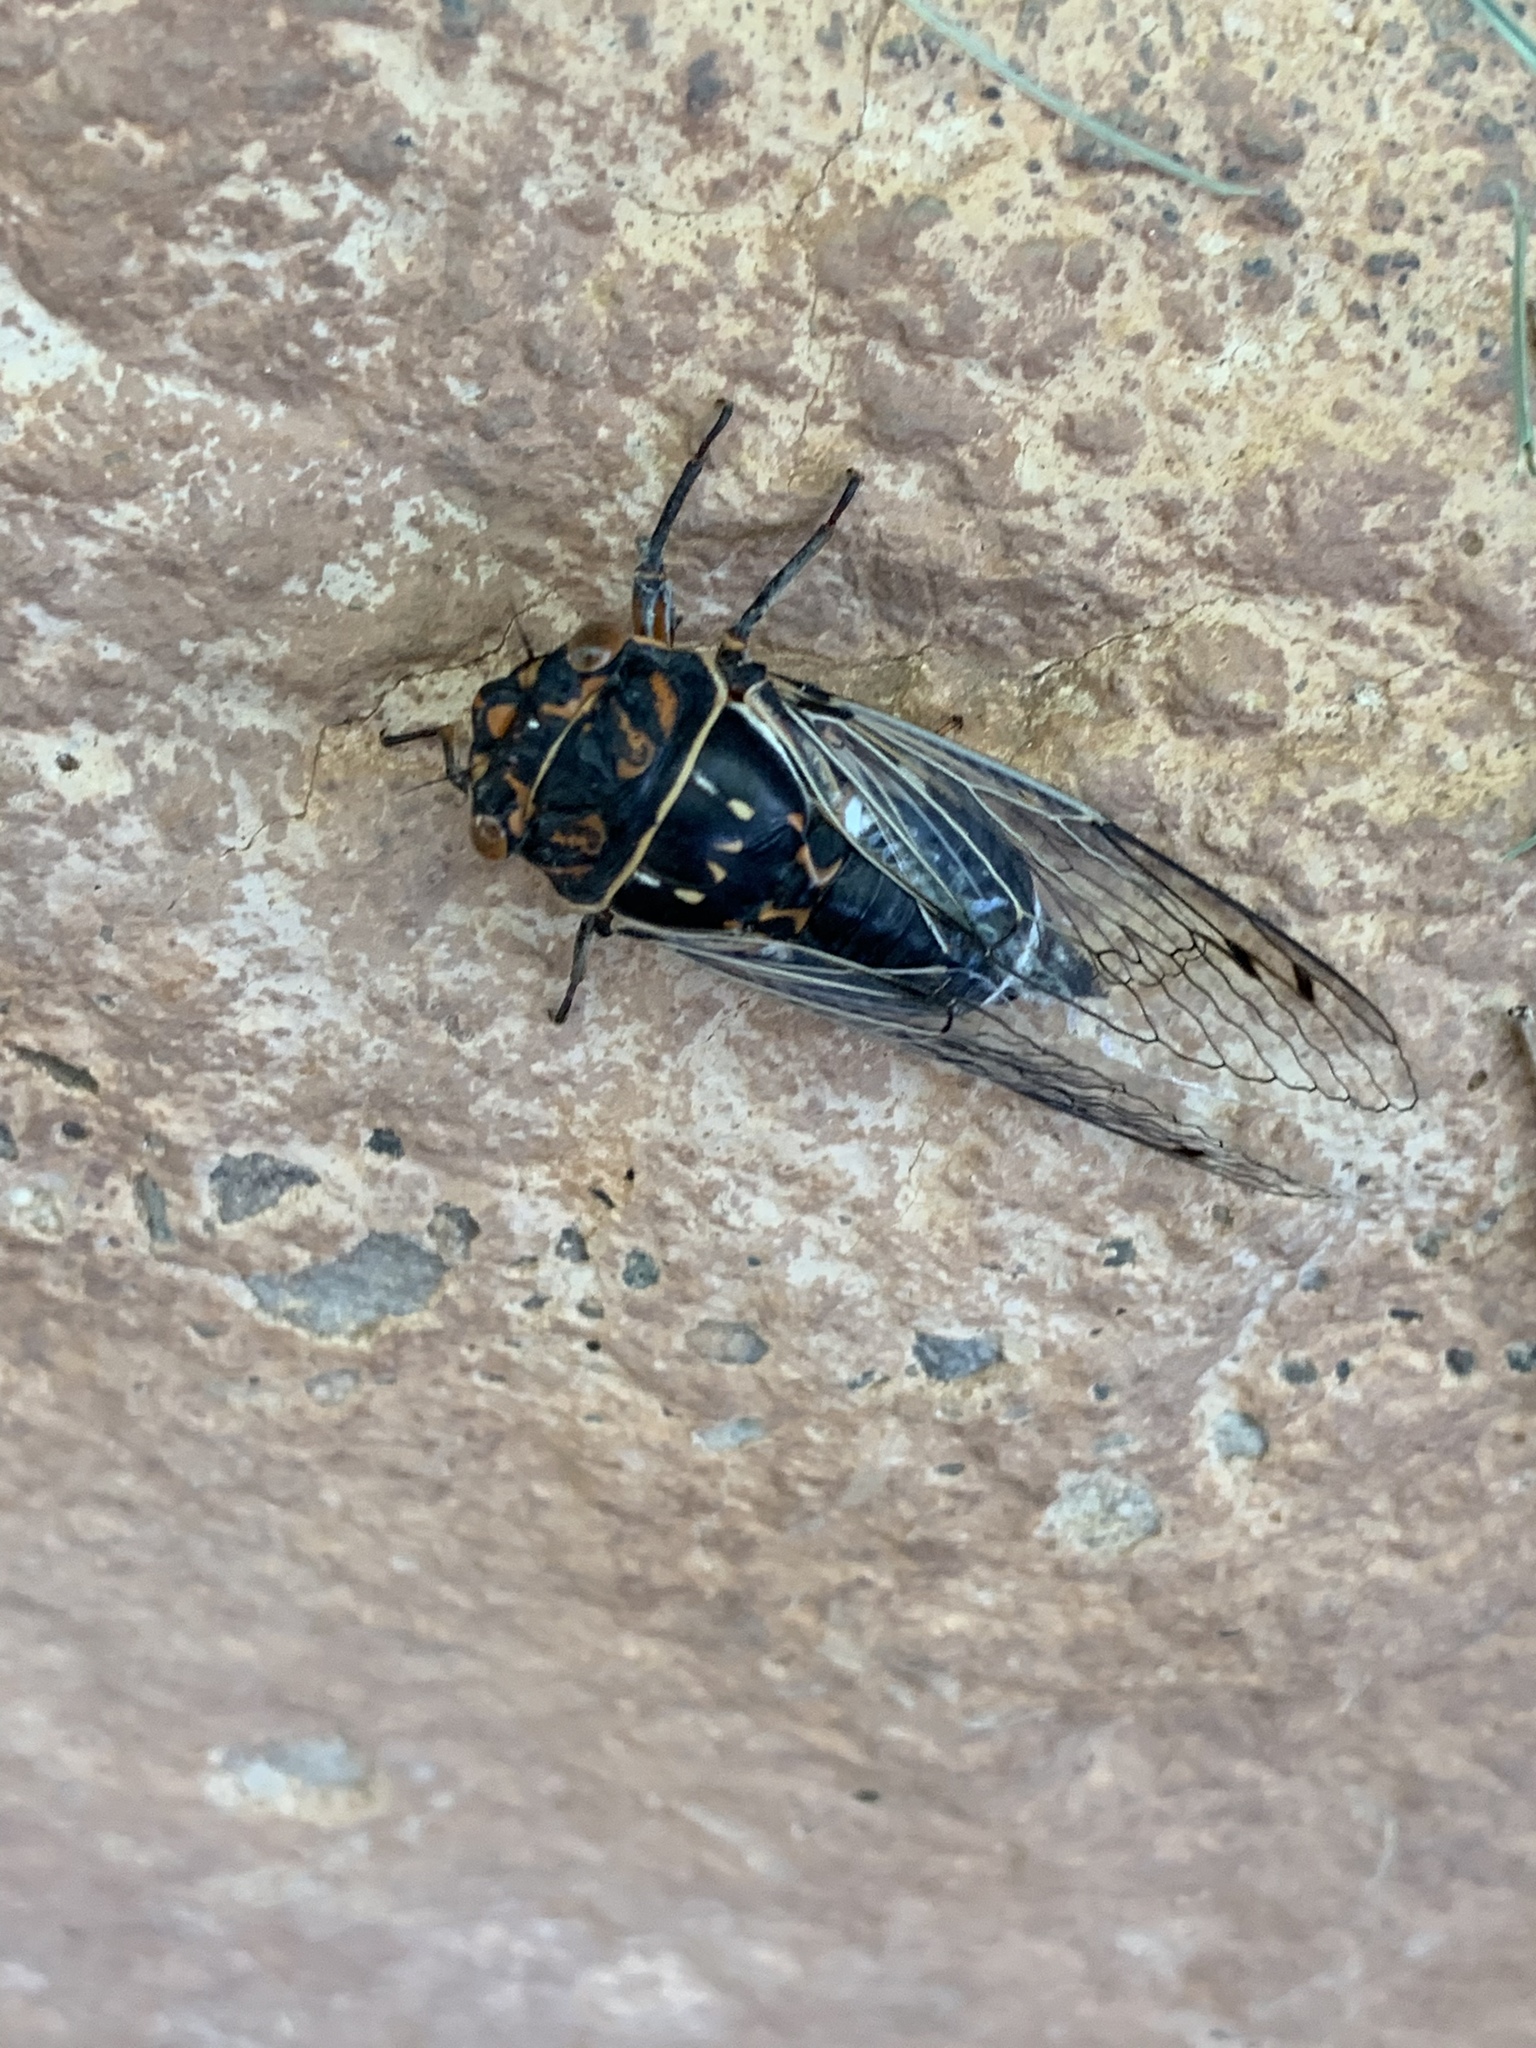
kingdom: Animalia
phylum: Arthropoda
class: Insecta
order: Hemiptera
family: Cicadidae
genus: Hadoa
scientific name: Hadoa duryi
